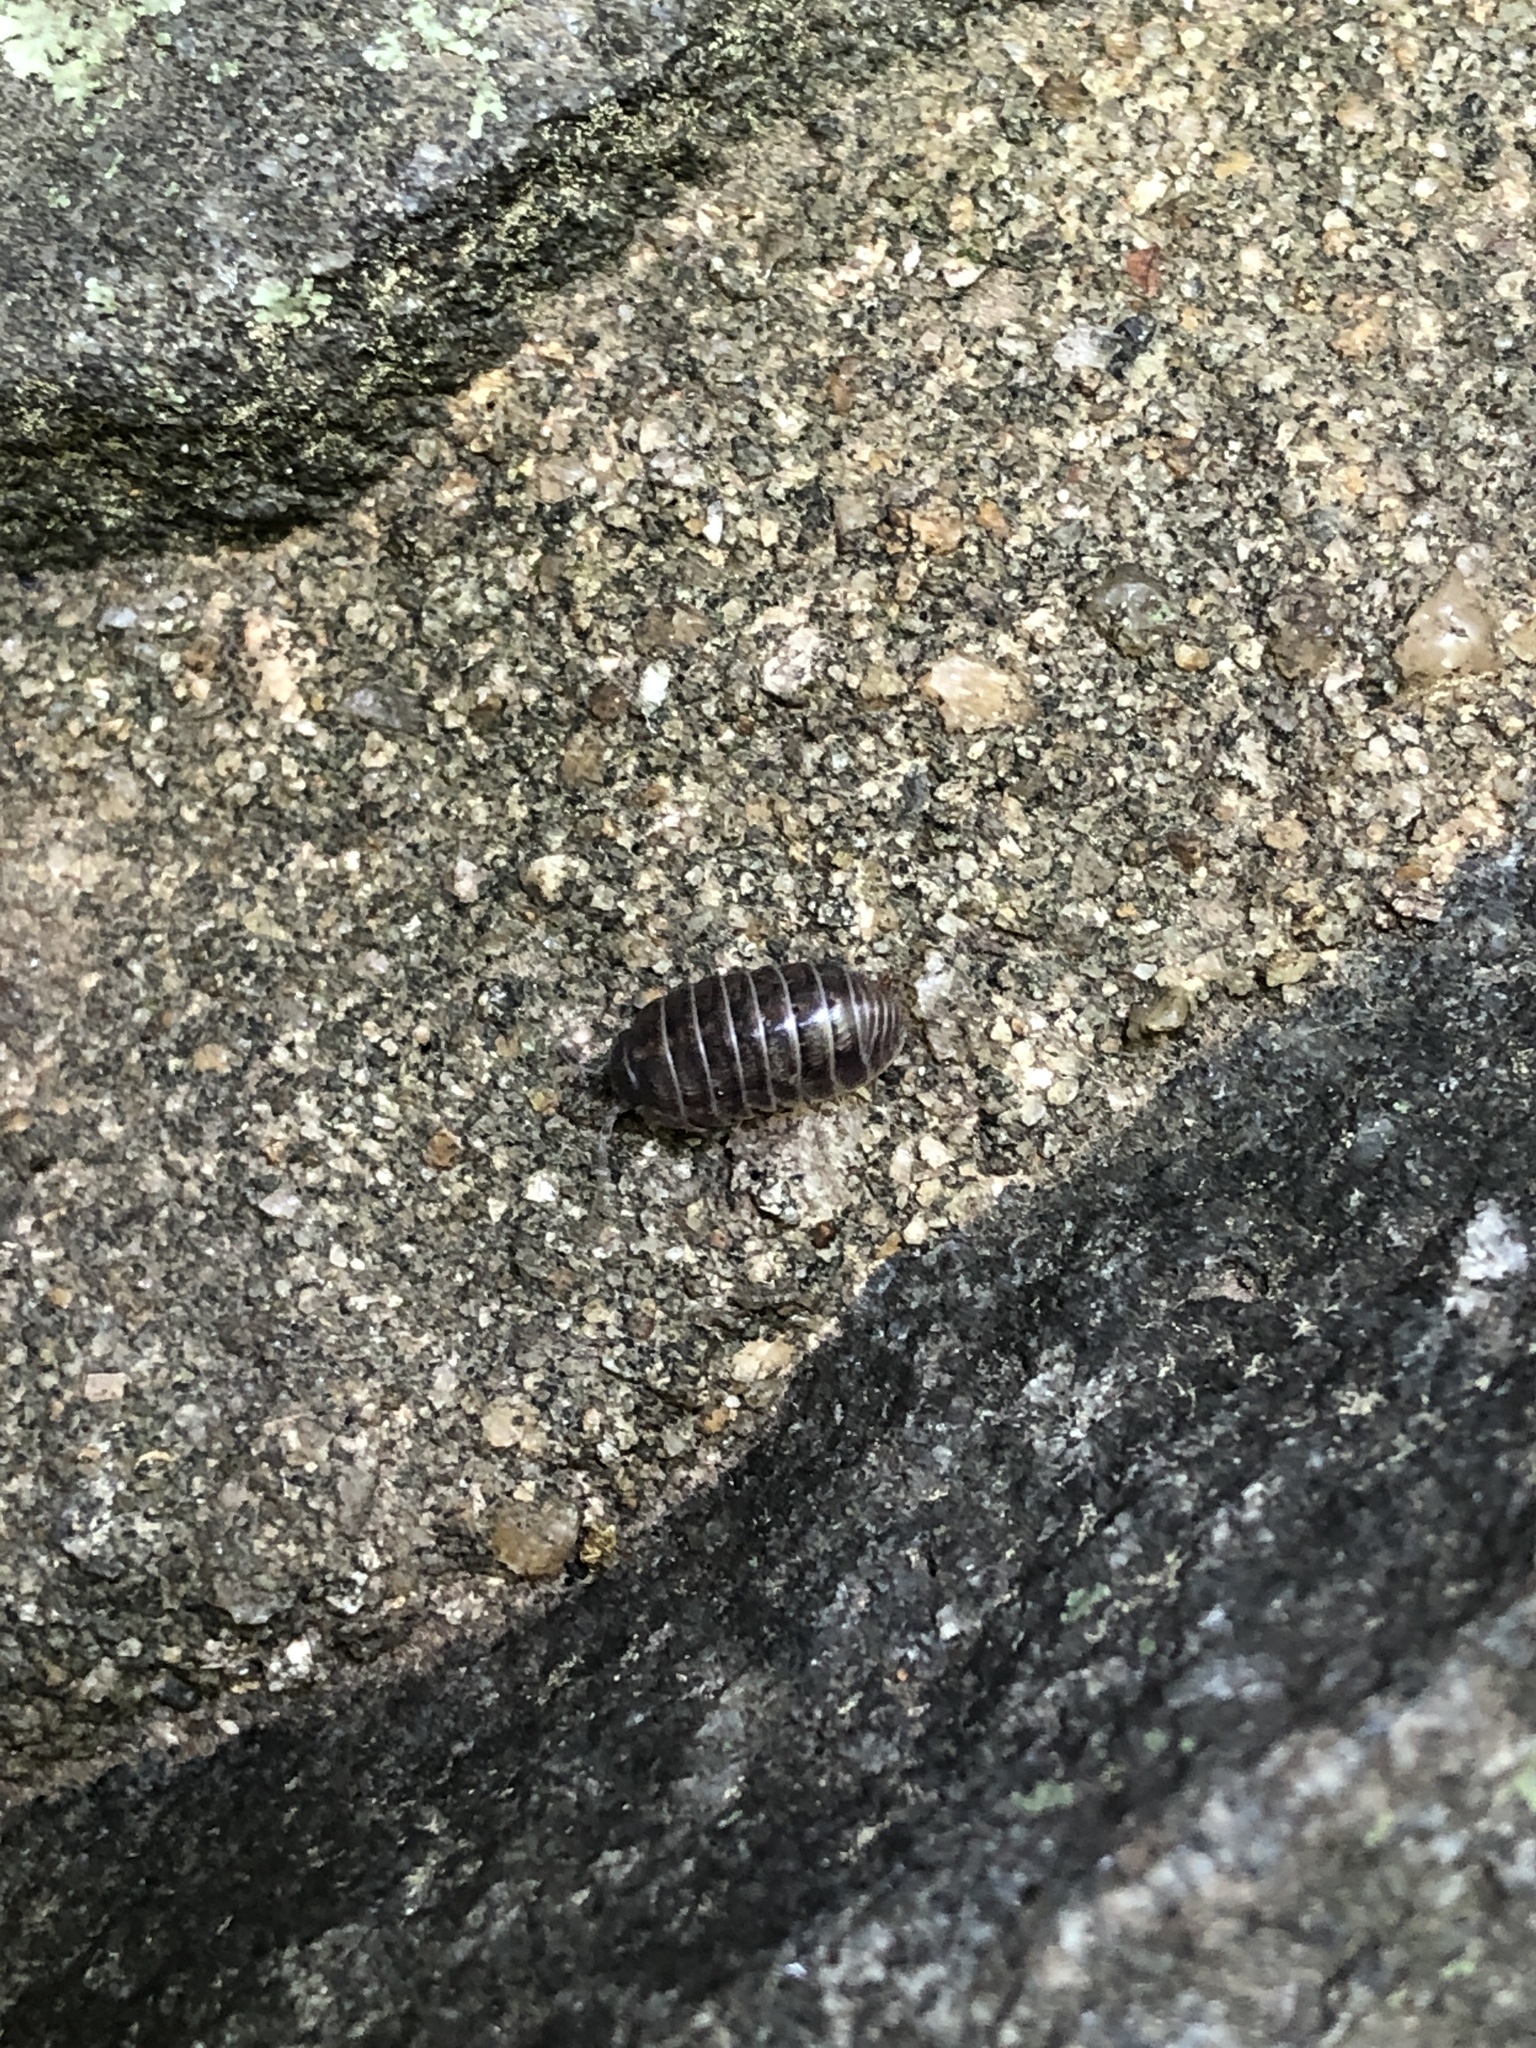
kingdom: Animalia
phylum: Arthropoda
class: Malacostraca
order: Isopoda
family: Armadillidiidae
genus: Armadillidium
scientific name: Armadillidium vulgare
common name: Common pill woodlouse
